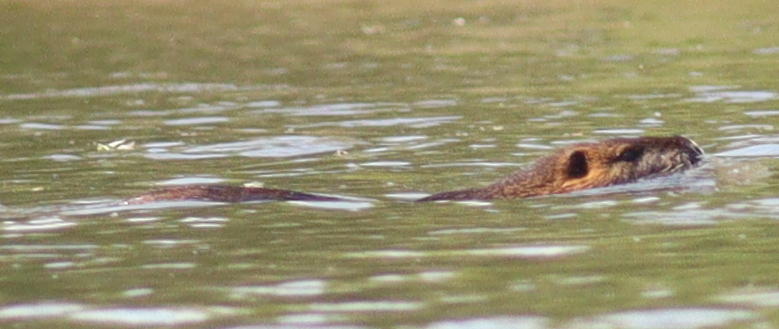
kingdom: Animalia
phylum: Chordata
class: Mammalia
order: Rodentia
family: Myocastoridae
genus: Myocastor
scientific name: Myocastor coypus
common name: Coypu
